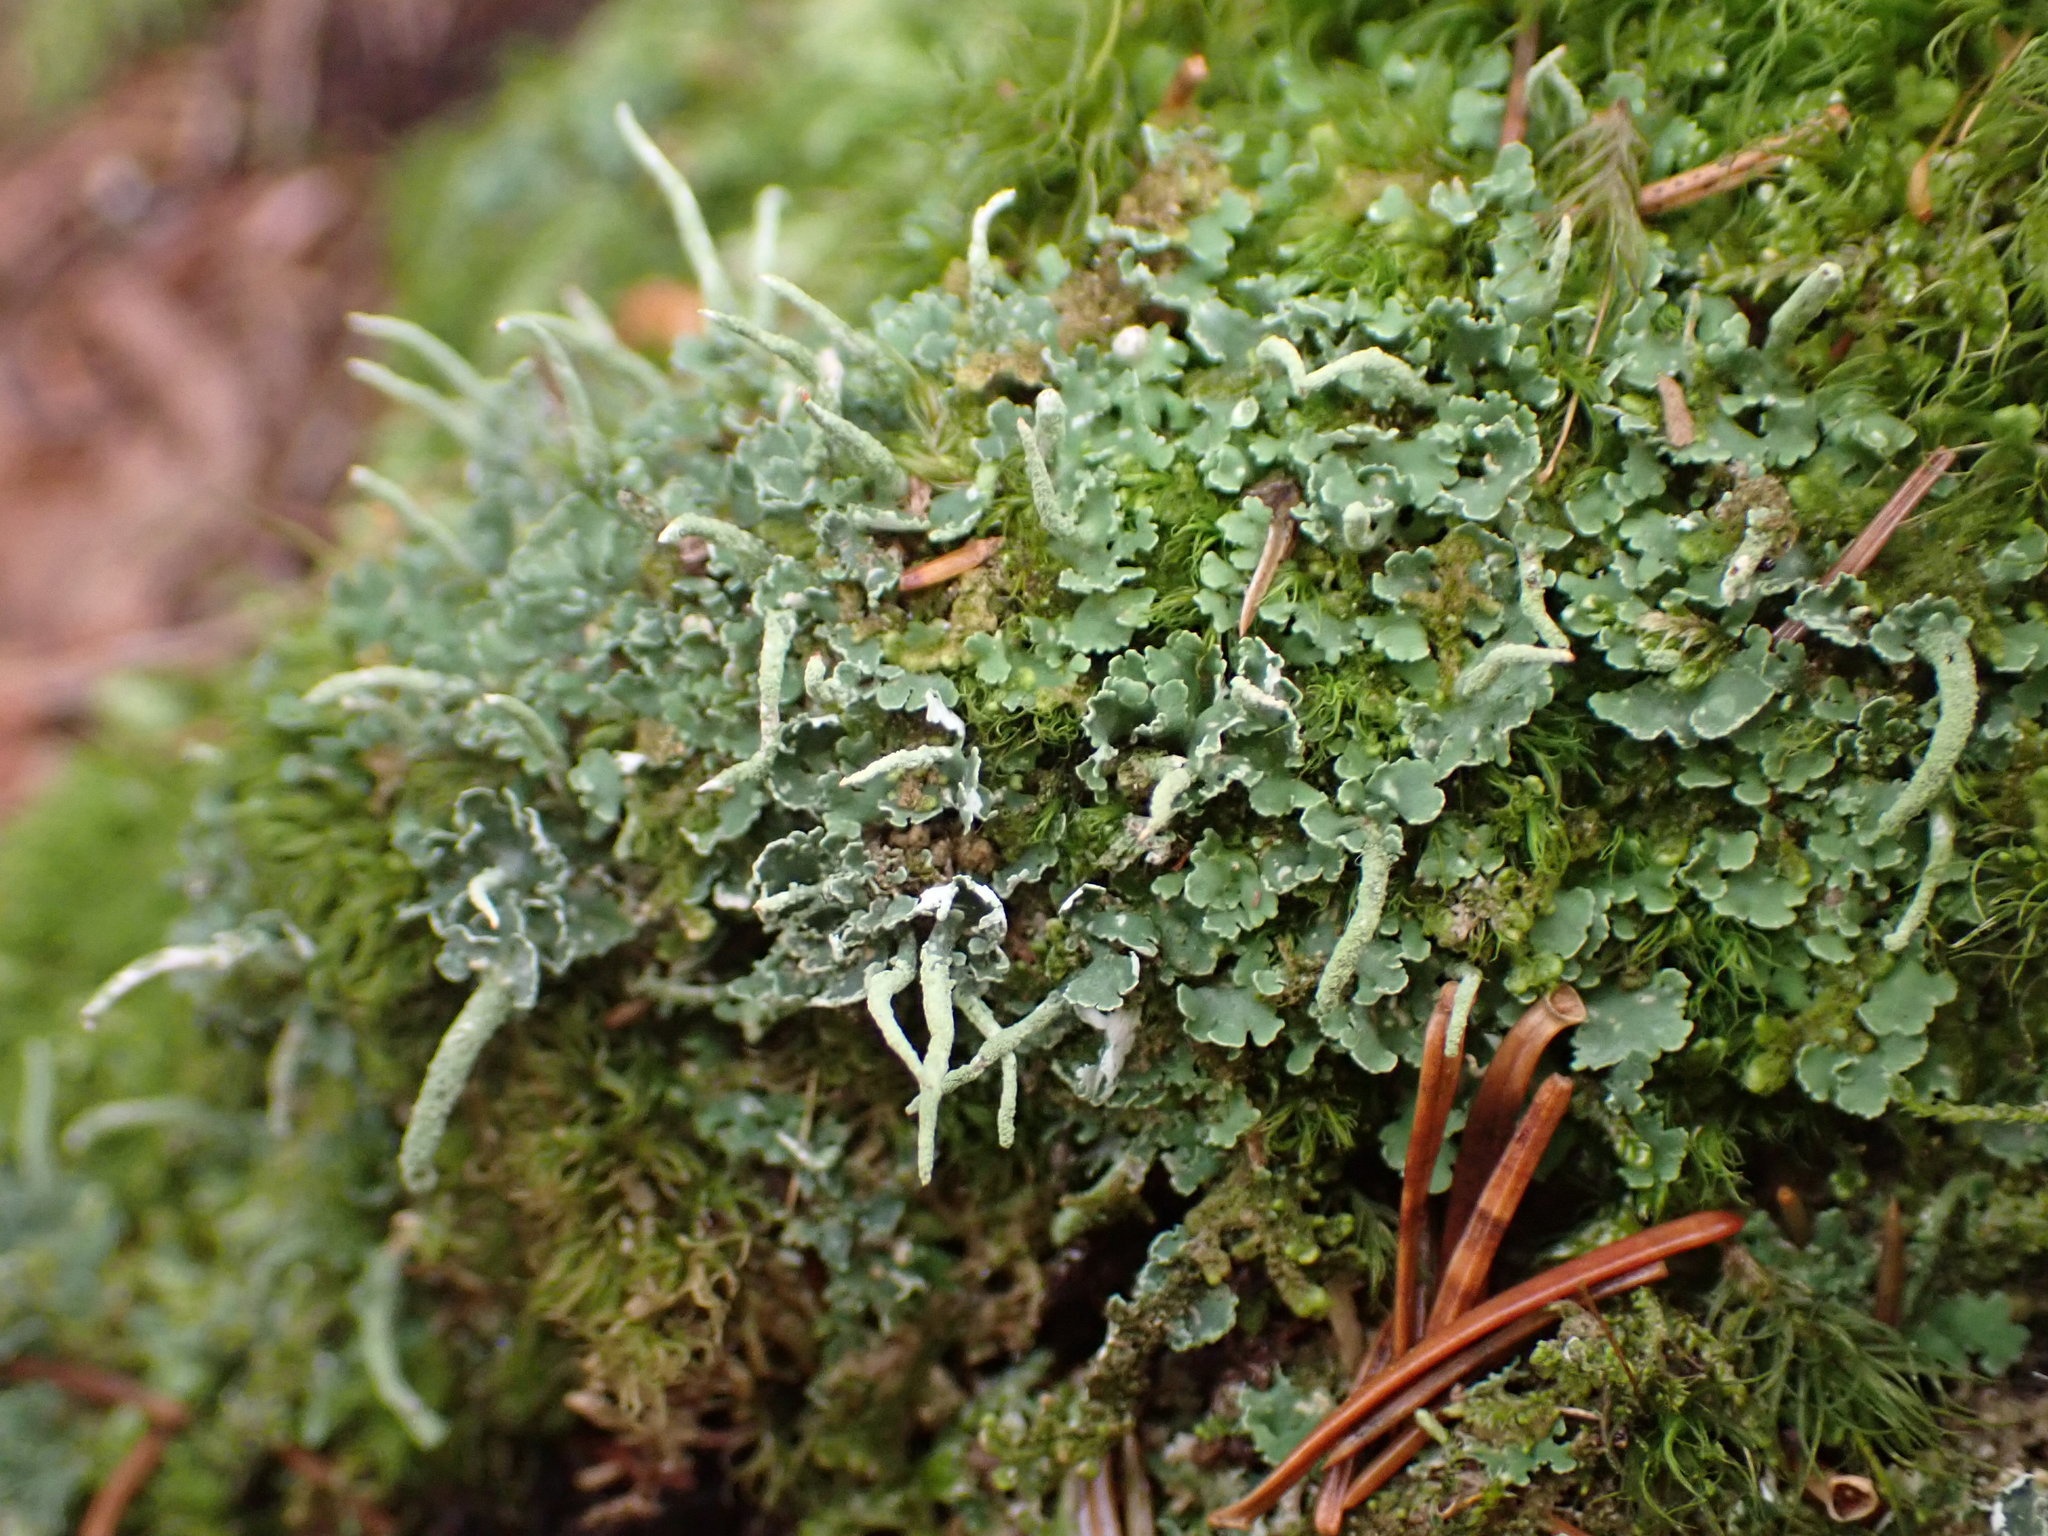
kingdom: Fungi
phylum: Ascomycota
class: Lecanoromycetes
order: Lecanorales
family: Cladoniaceae
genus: Cladonia
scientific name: Cladonia coniocraea
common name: Common powderhorn
